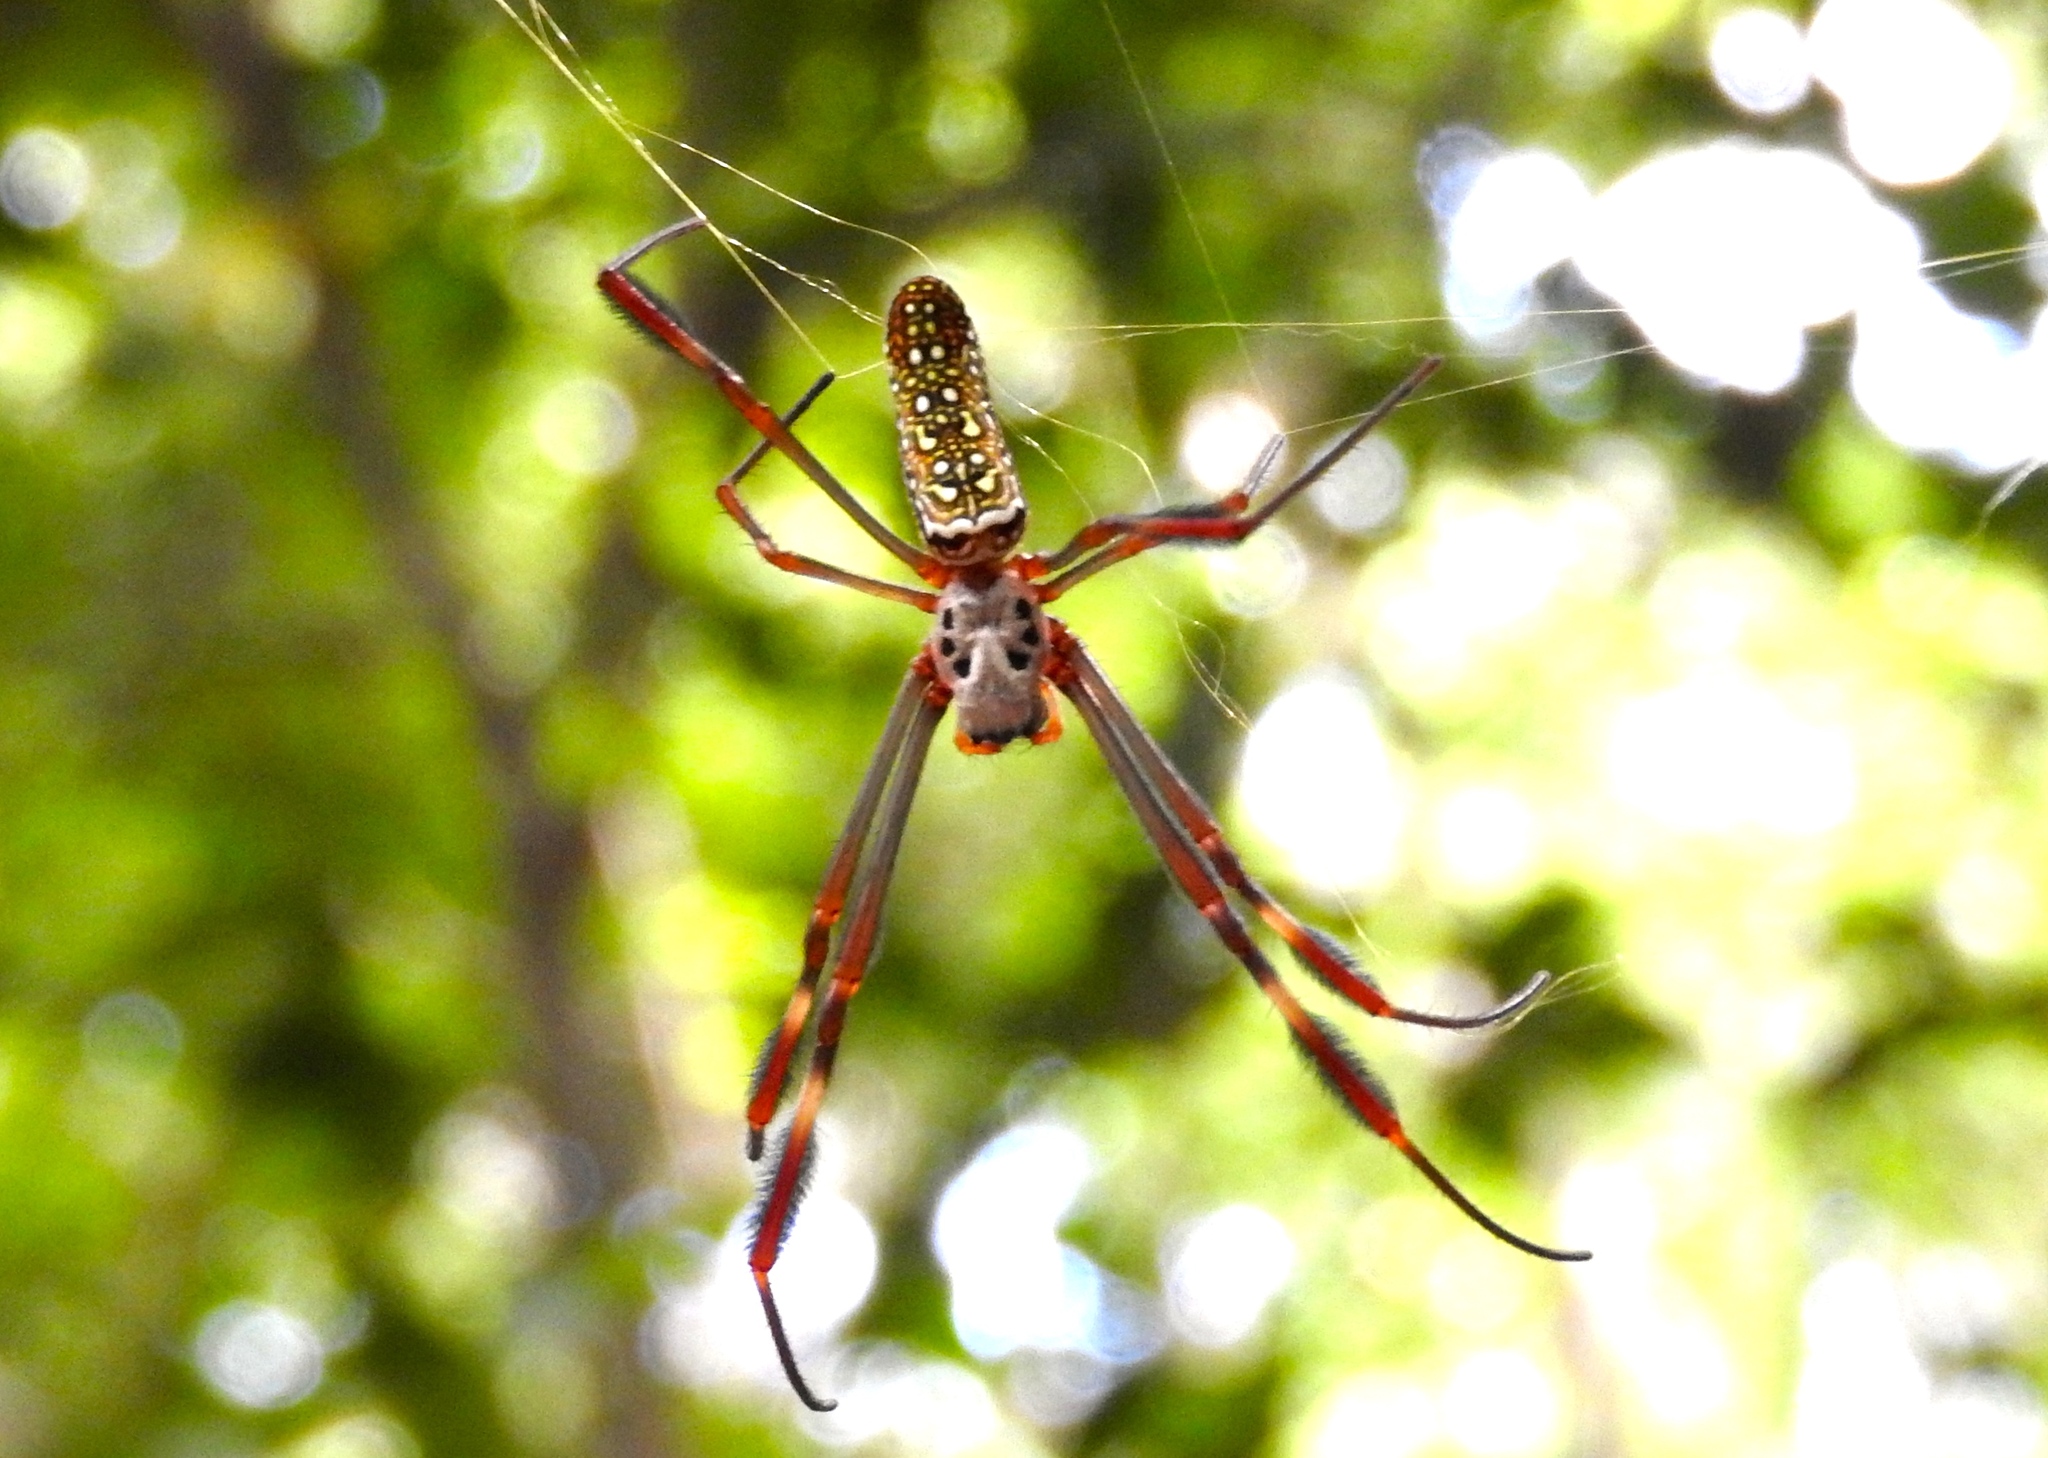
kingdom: Animalia
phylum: Arthropoda
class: Arachnida
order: Araneae
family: Araneidae
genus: Trichonephila
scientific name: Trichonephila clavipes
